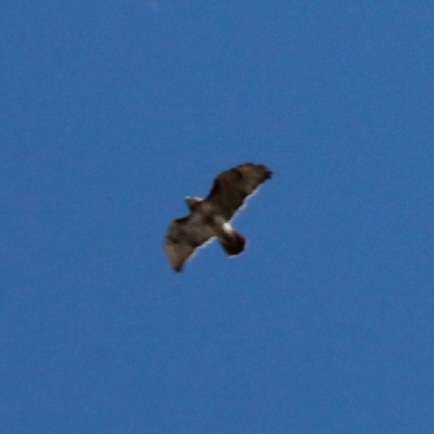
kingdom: Animalia
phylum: Chordata
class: Aves
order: Accipitriformes
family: Accipitridae
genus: Buteo
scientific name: Buteo jamaicensis
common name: Red-tailed hawk
